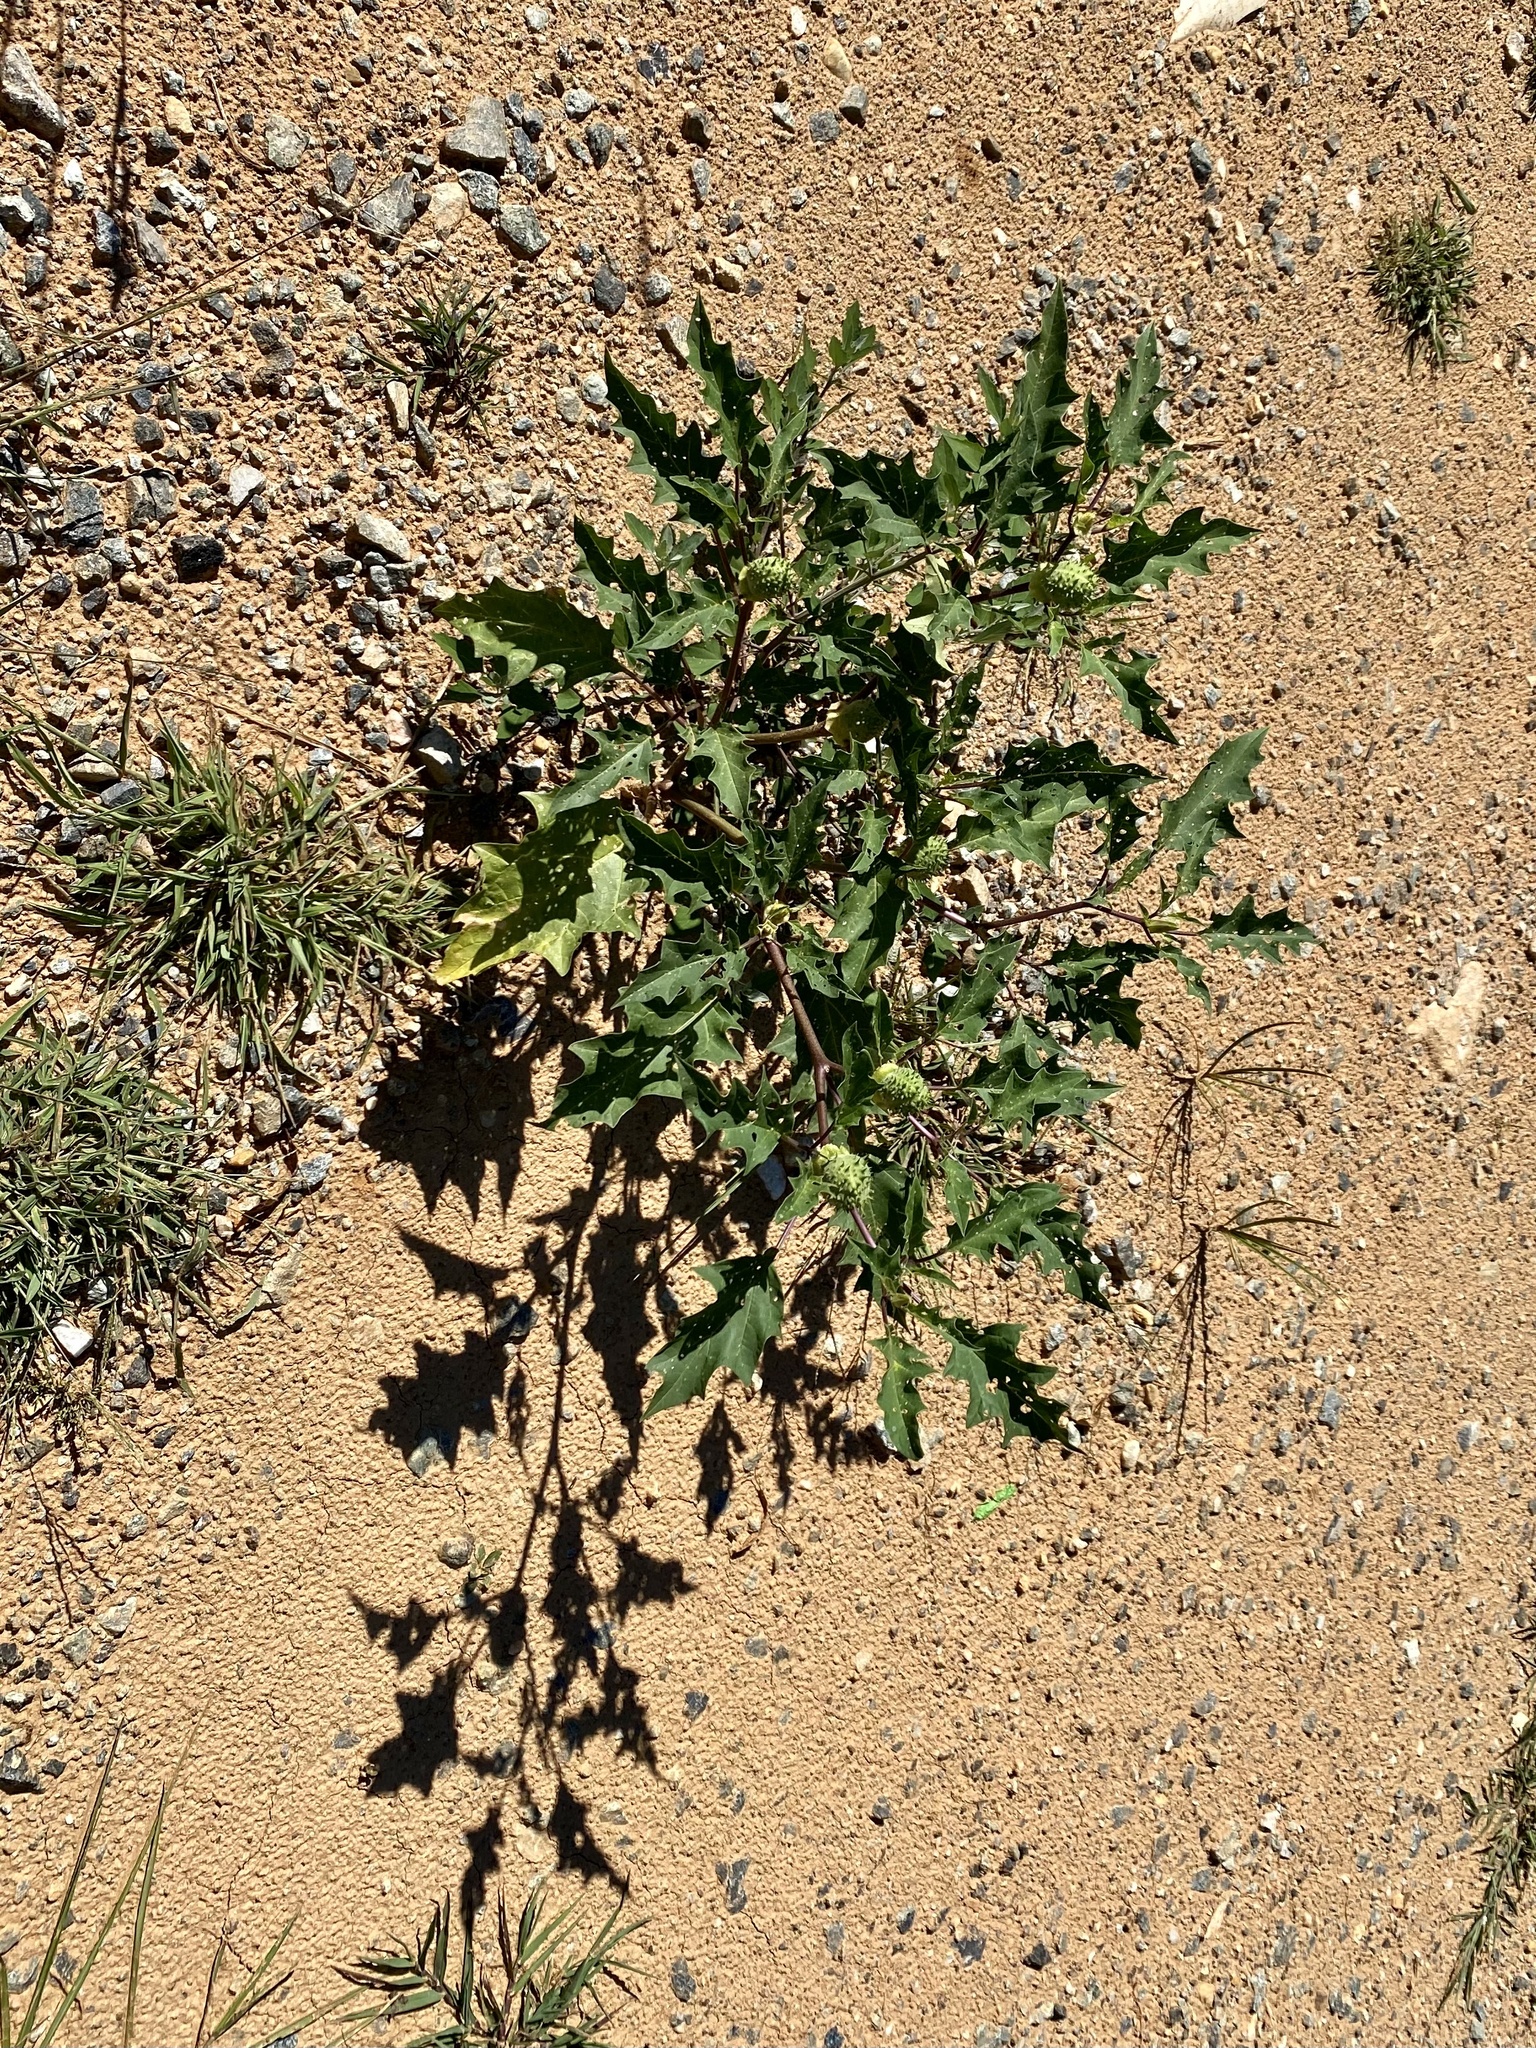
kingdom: Plantae
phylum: Tracheophyta
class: Magnoliopsida
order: Solanales
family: Solanaceae
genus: Datura
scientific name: Datura stramonium
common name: Thorn-apple
